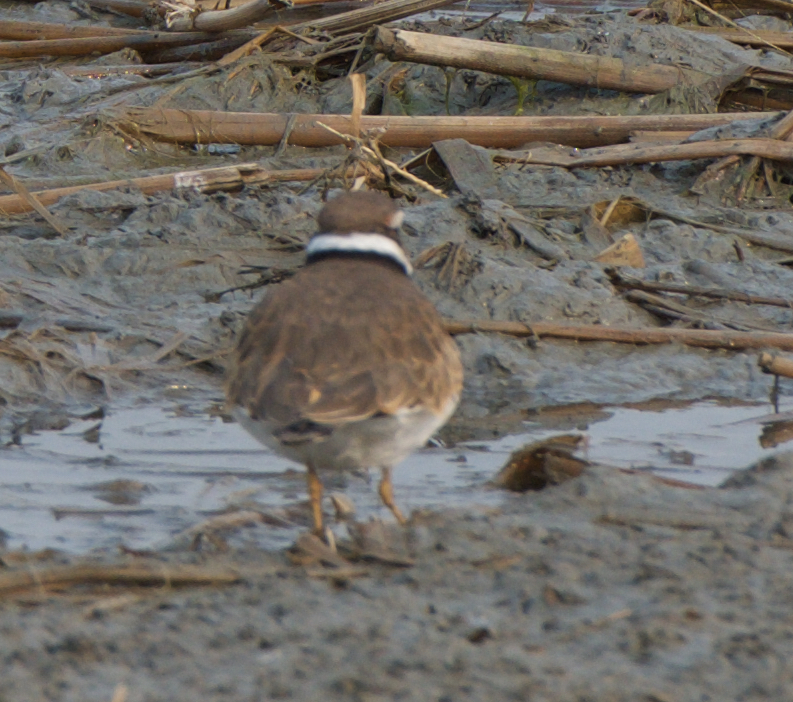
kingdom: Animalia
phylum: Chordata
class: Aves
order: Charadriiformes
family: Charadriidae
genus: Charadrius
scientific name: Charadrius vociferus
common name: Killdeer
